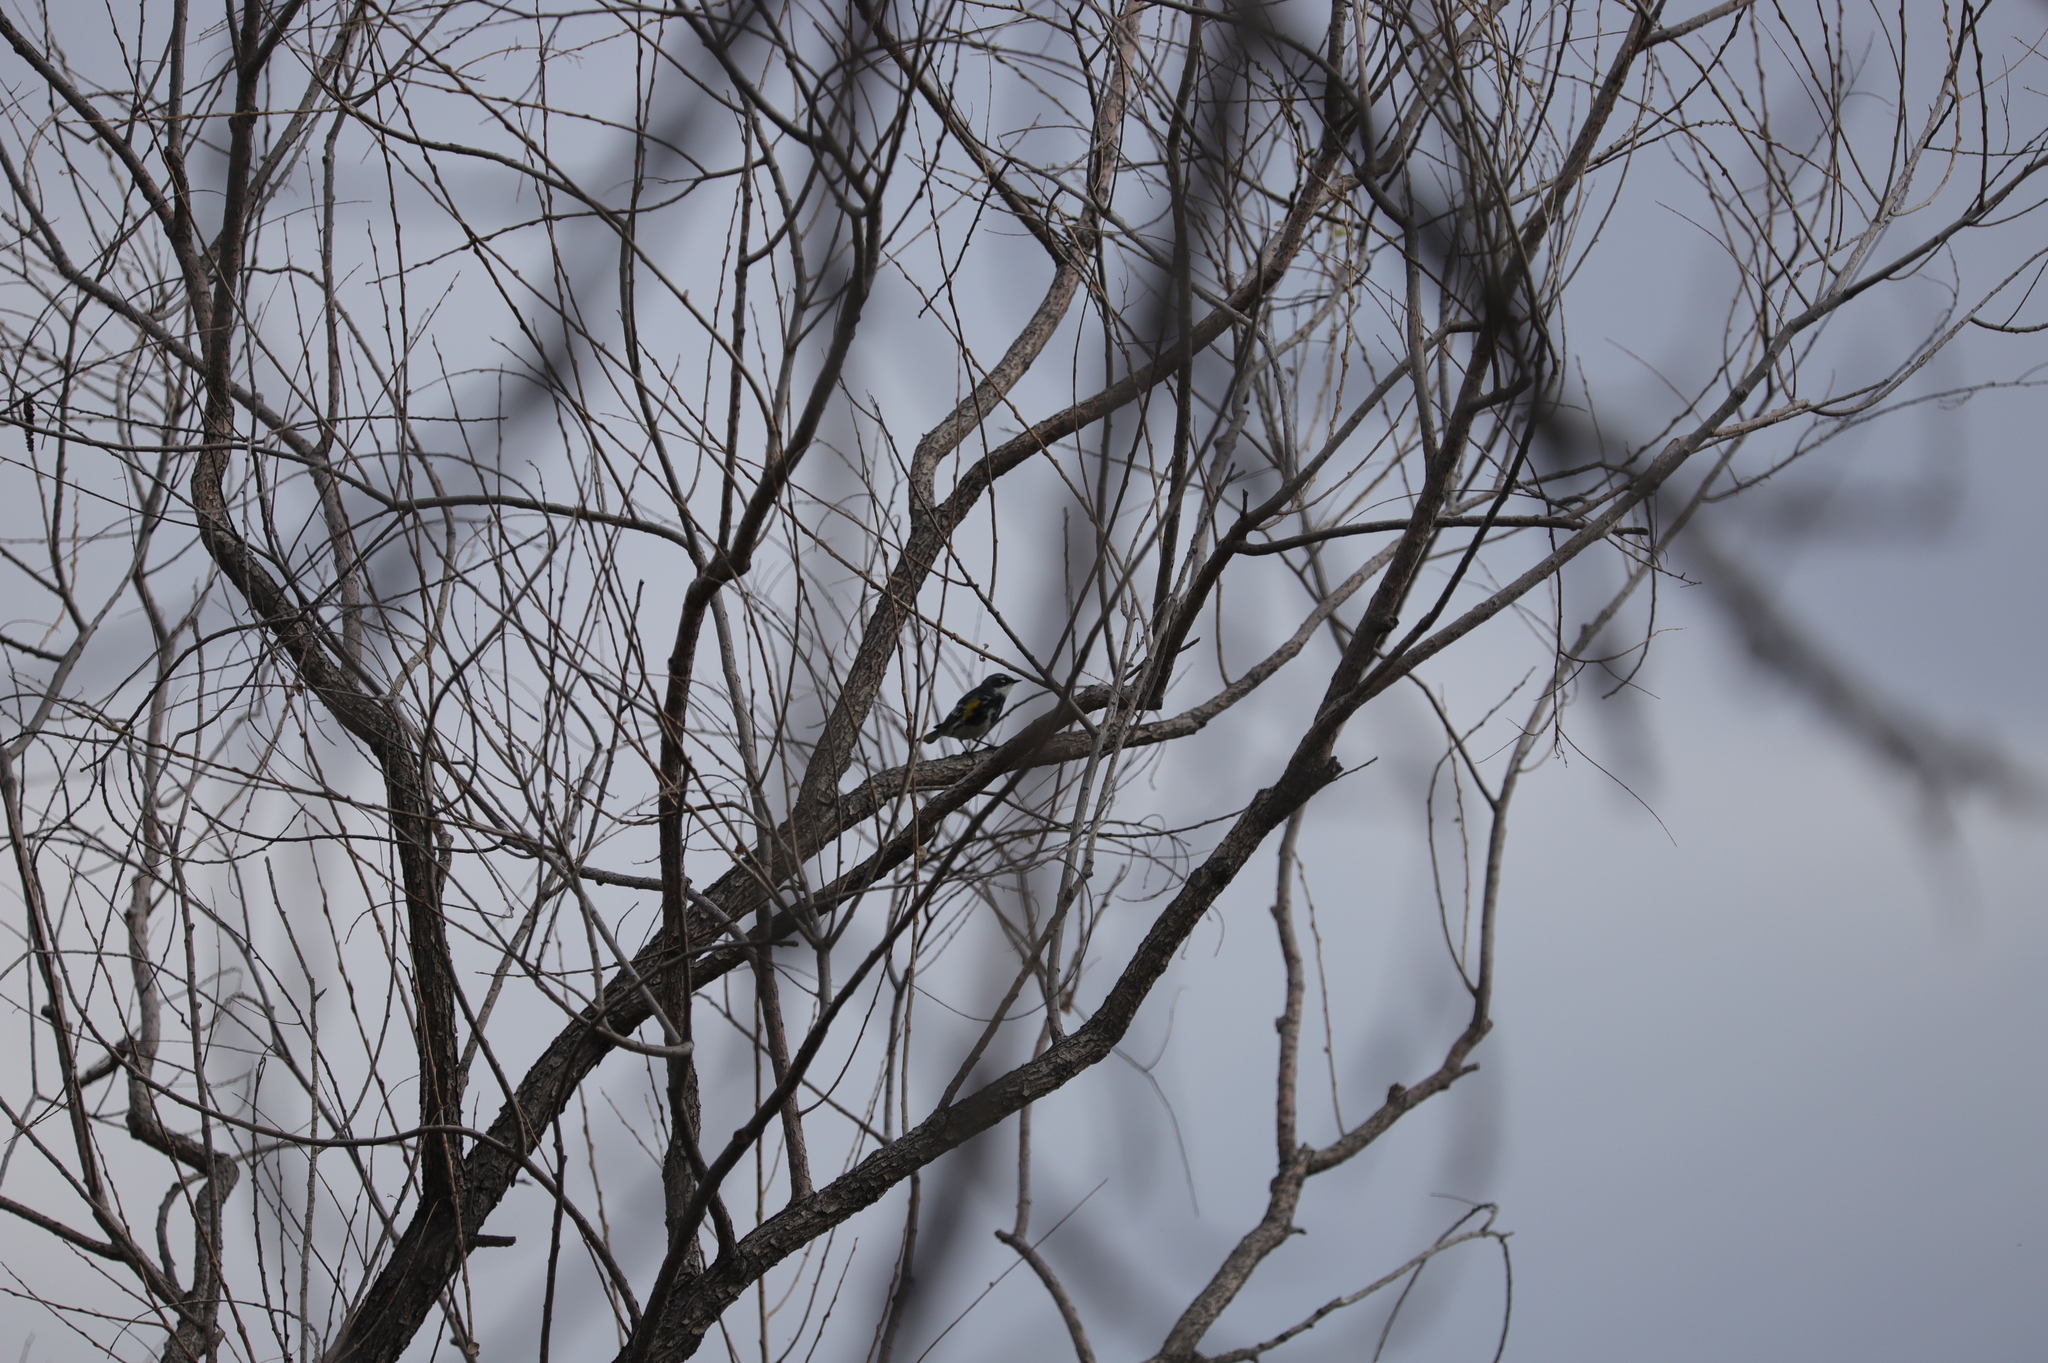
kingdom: Animalia
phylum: Chordata
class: Aves
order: Passeriformes
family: Parulidae
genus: Setophaga
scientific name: Setophaga coronata
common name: Myrtle warbler
